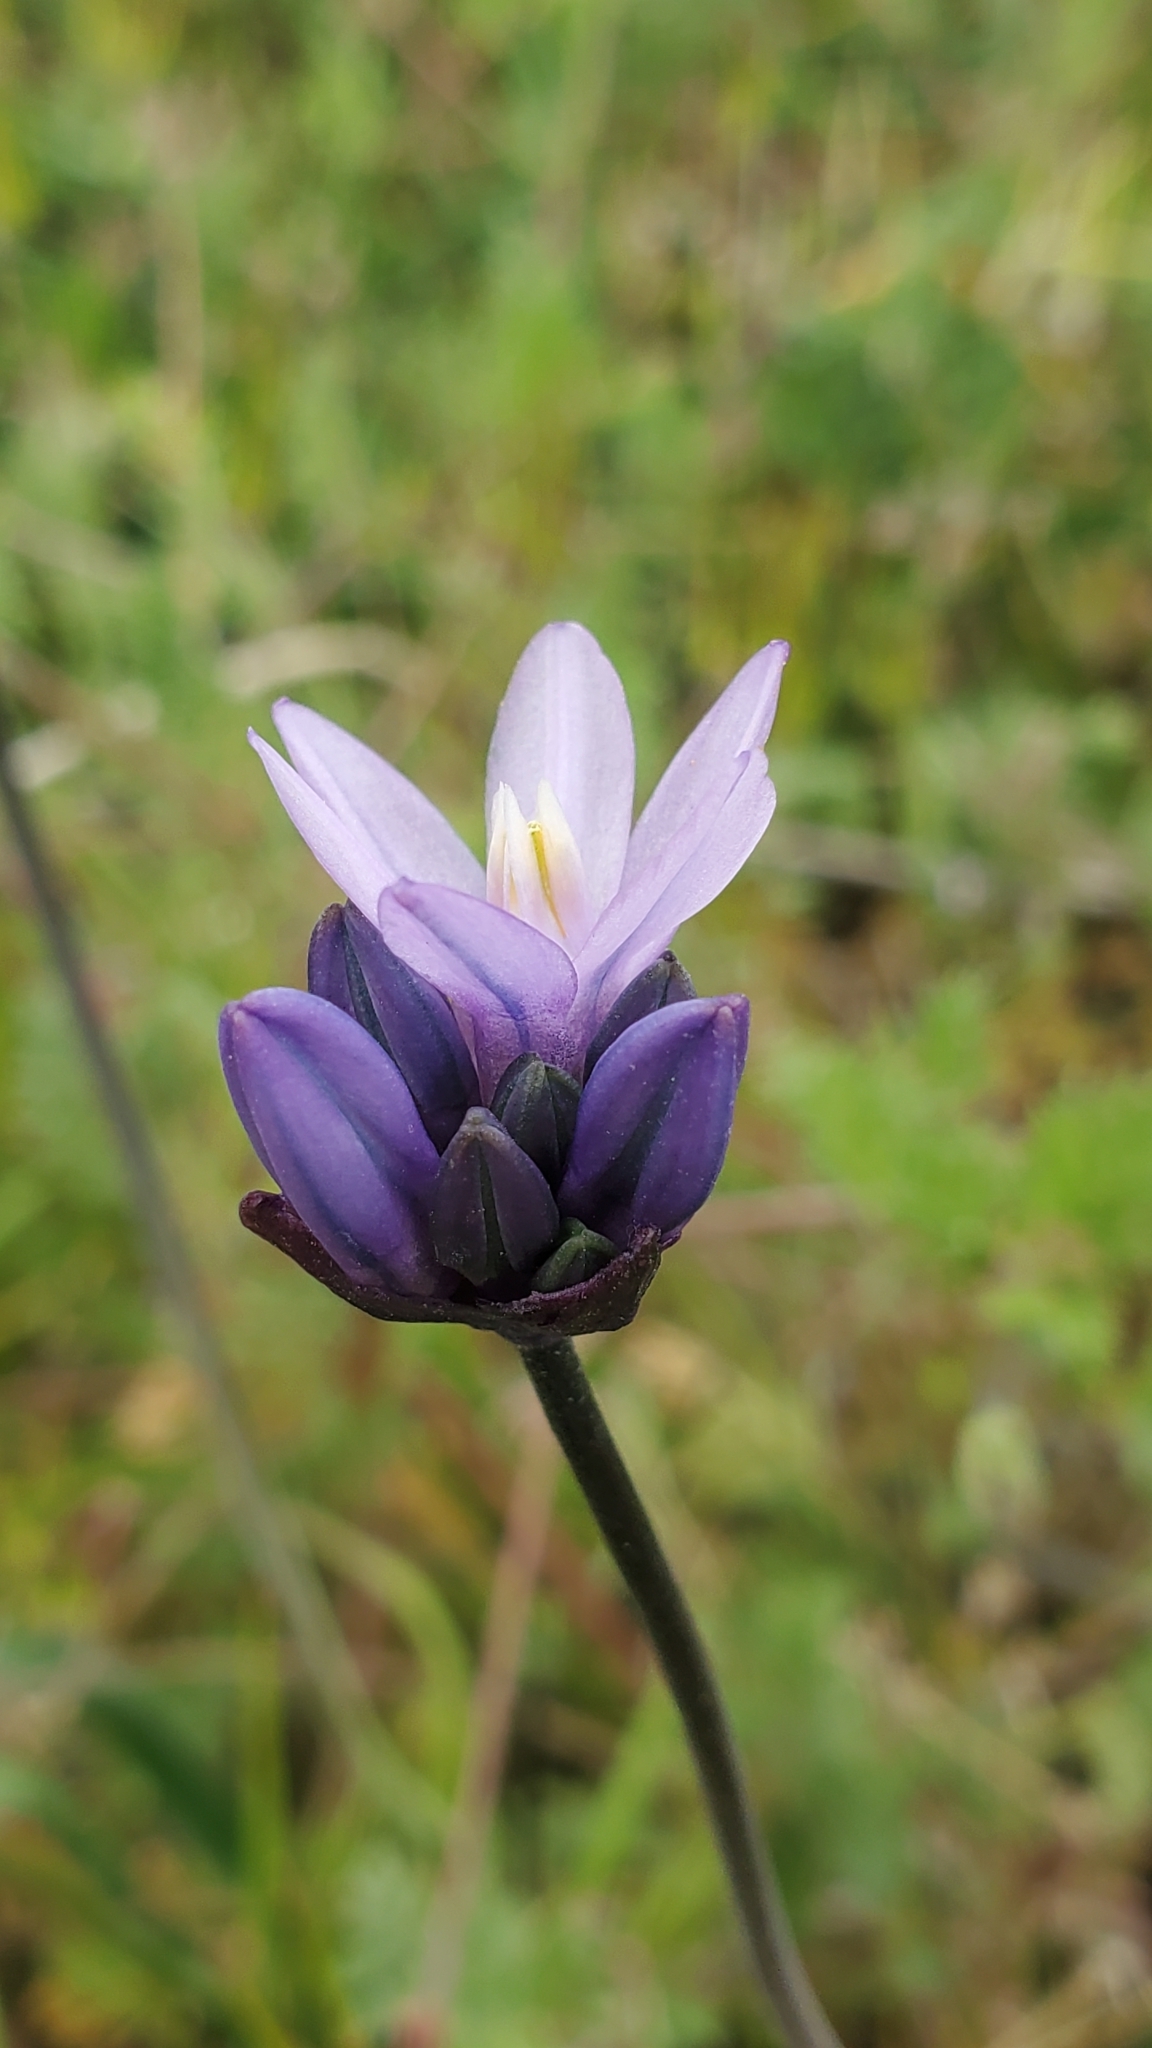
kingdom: Plantae
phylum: Tracheophyta
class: Liliopsida
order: Asparagales
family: Asparagaceae
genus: Dipterostemon
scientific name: Dipterostemon capitatus
